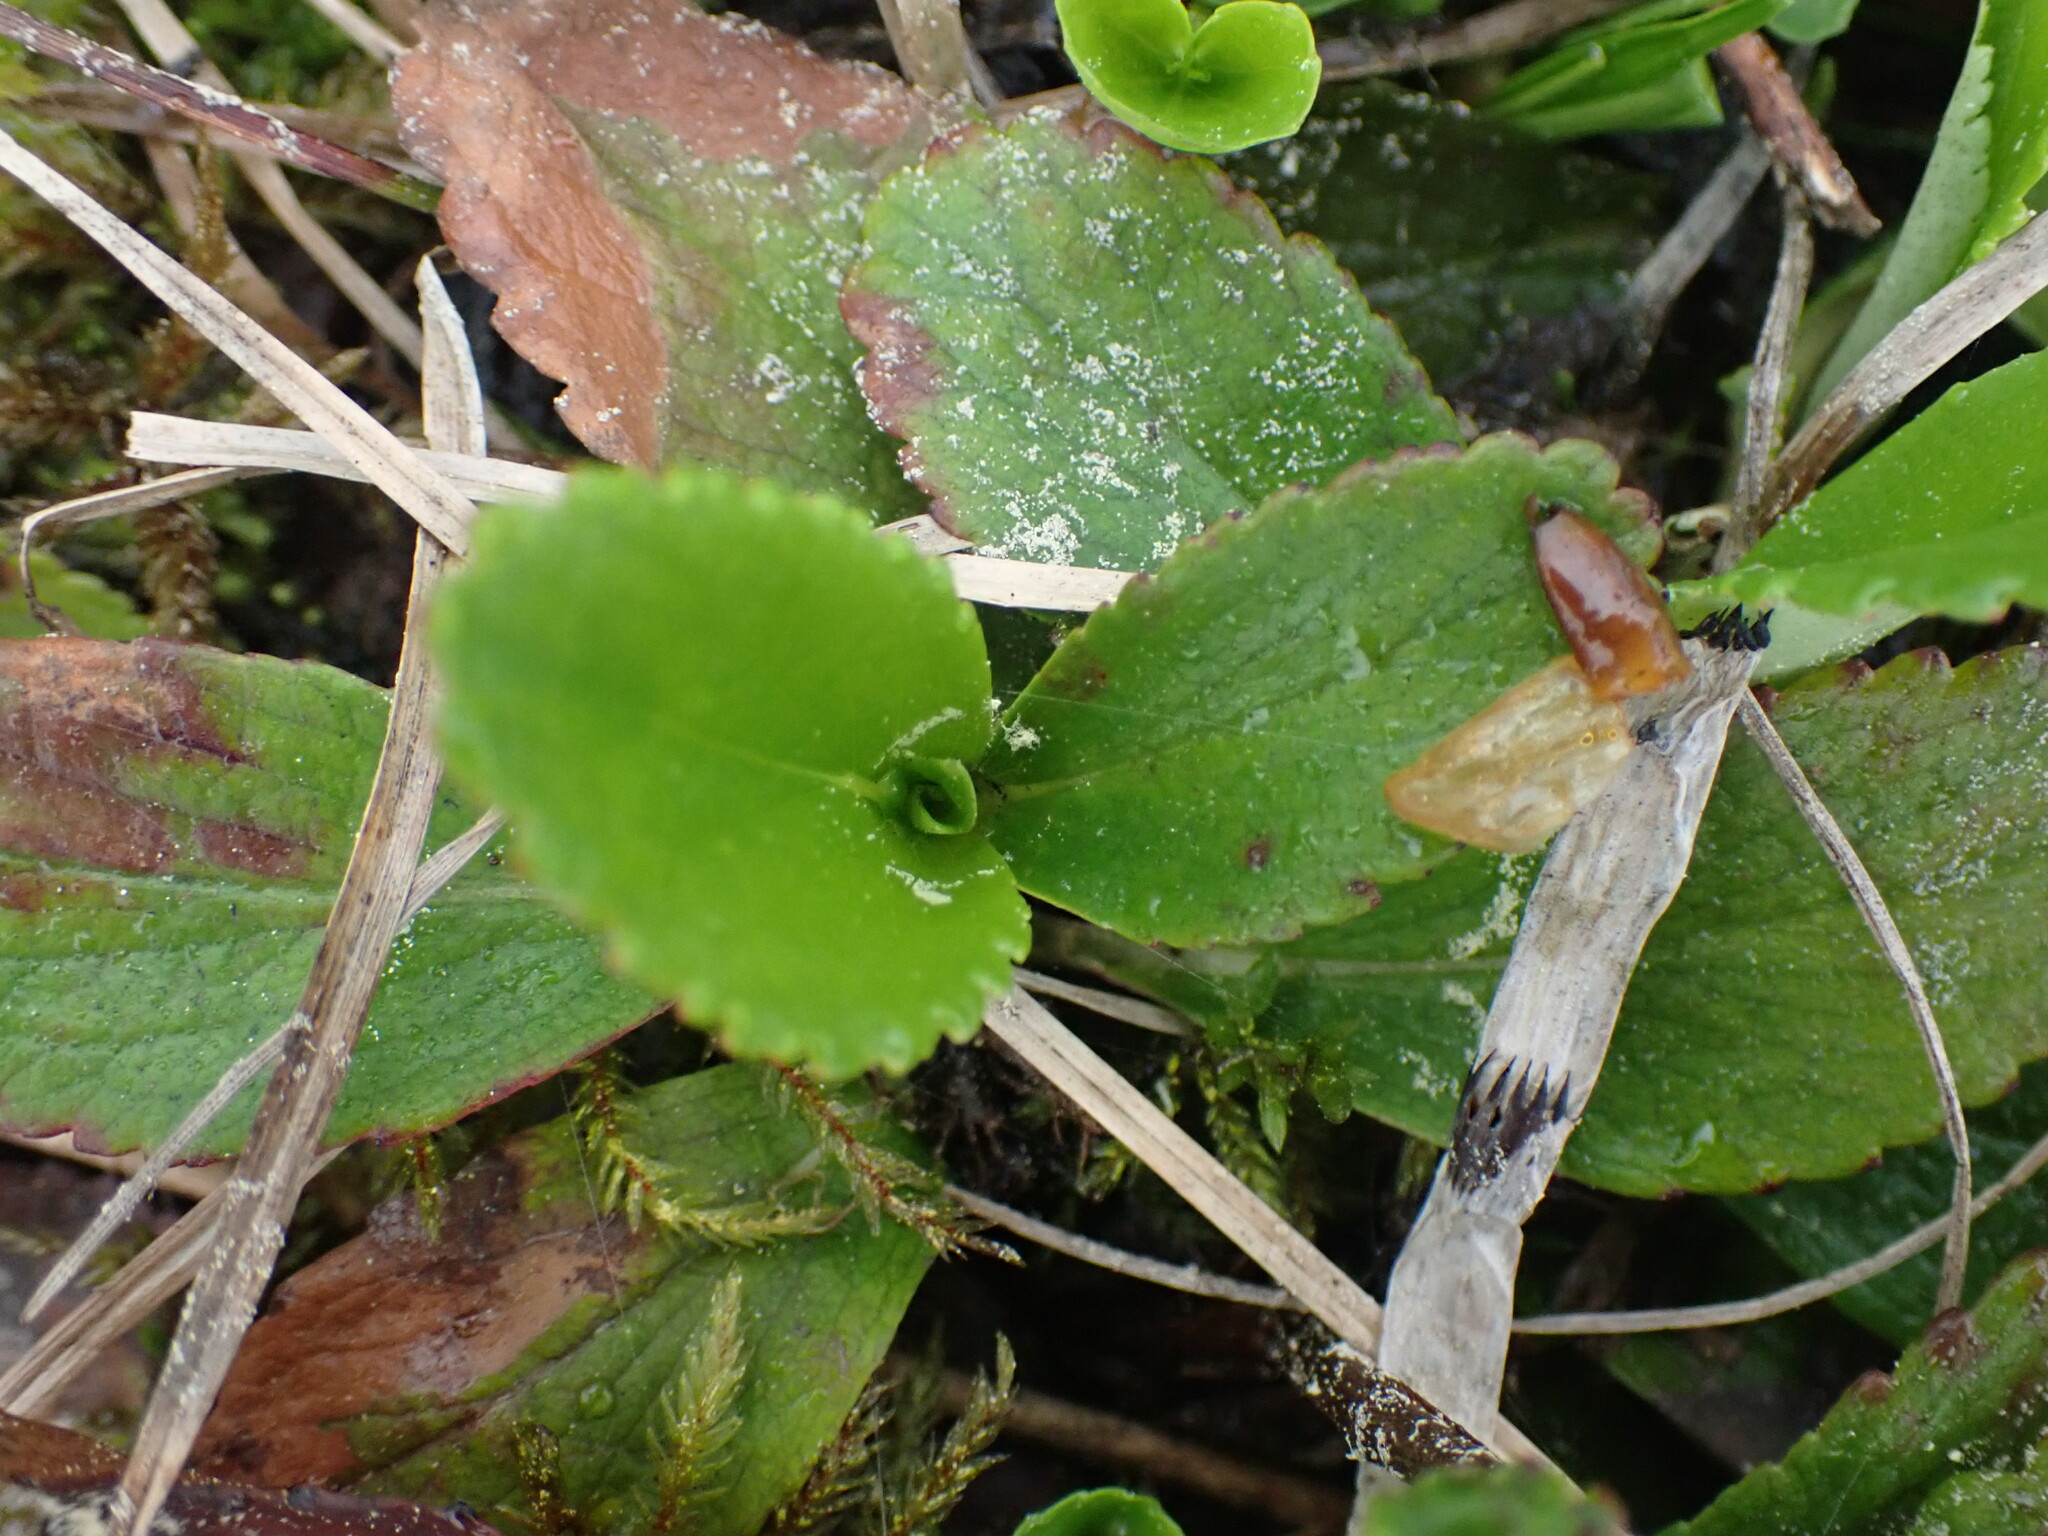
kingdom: Plantae
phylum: Tracheophyta
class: Magnoliopsida
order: Saxifragales
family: Saxifragaceae
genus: Leptarrhena
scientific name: Leptarrhena pyrolifolia
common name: Leatherleaf-saxifrage
